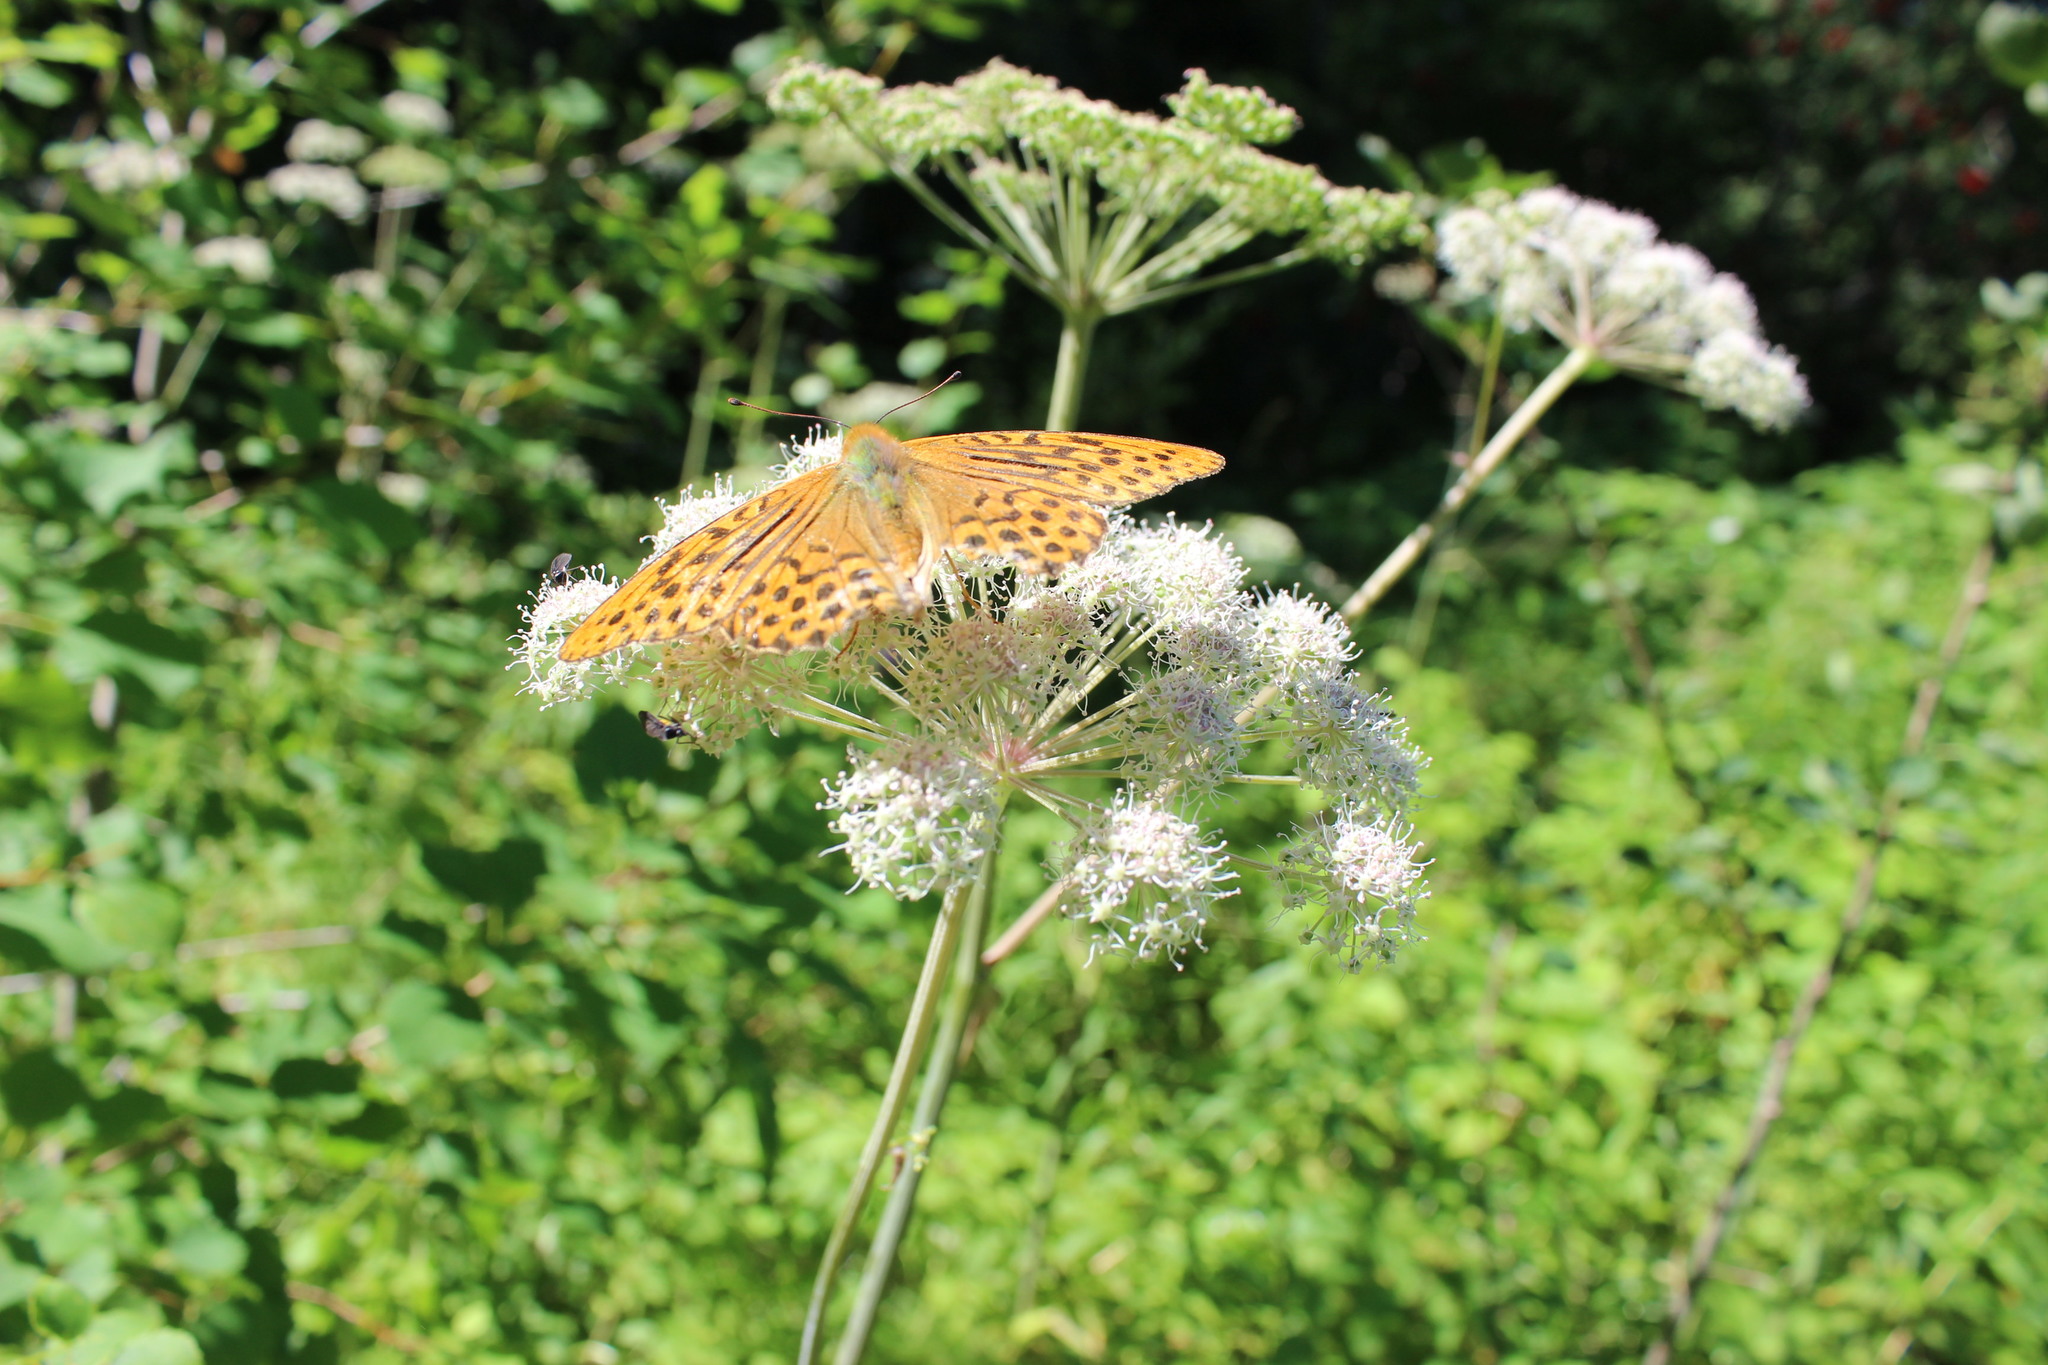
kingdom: Animalia
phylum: Arthropoda
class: Insecta
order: Lepidoptera
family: Nymphalidae
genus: Argynnis
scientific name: Argynnis paphia
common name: Silver-washed fritillary
